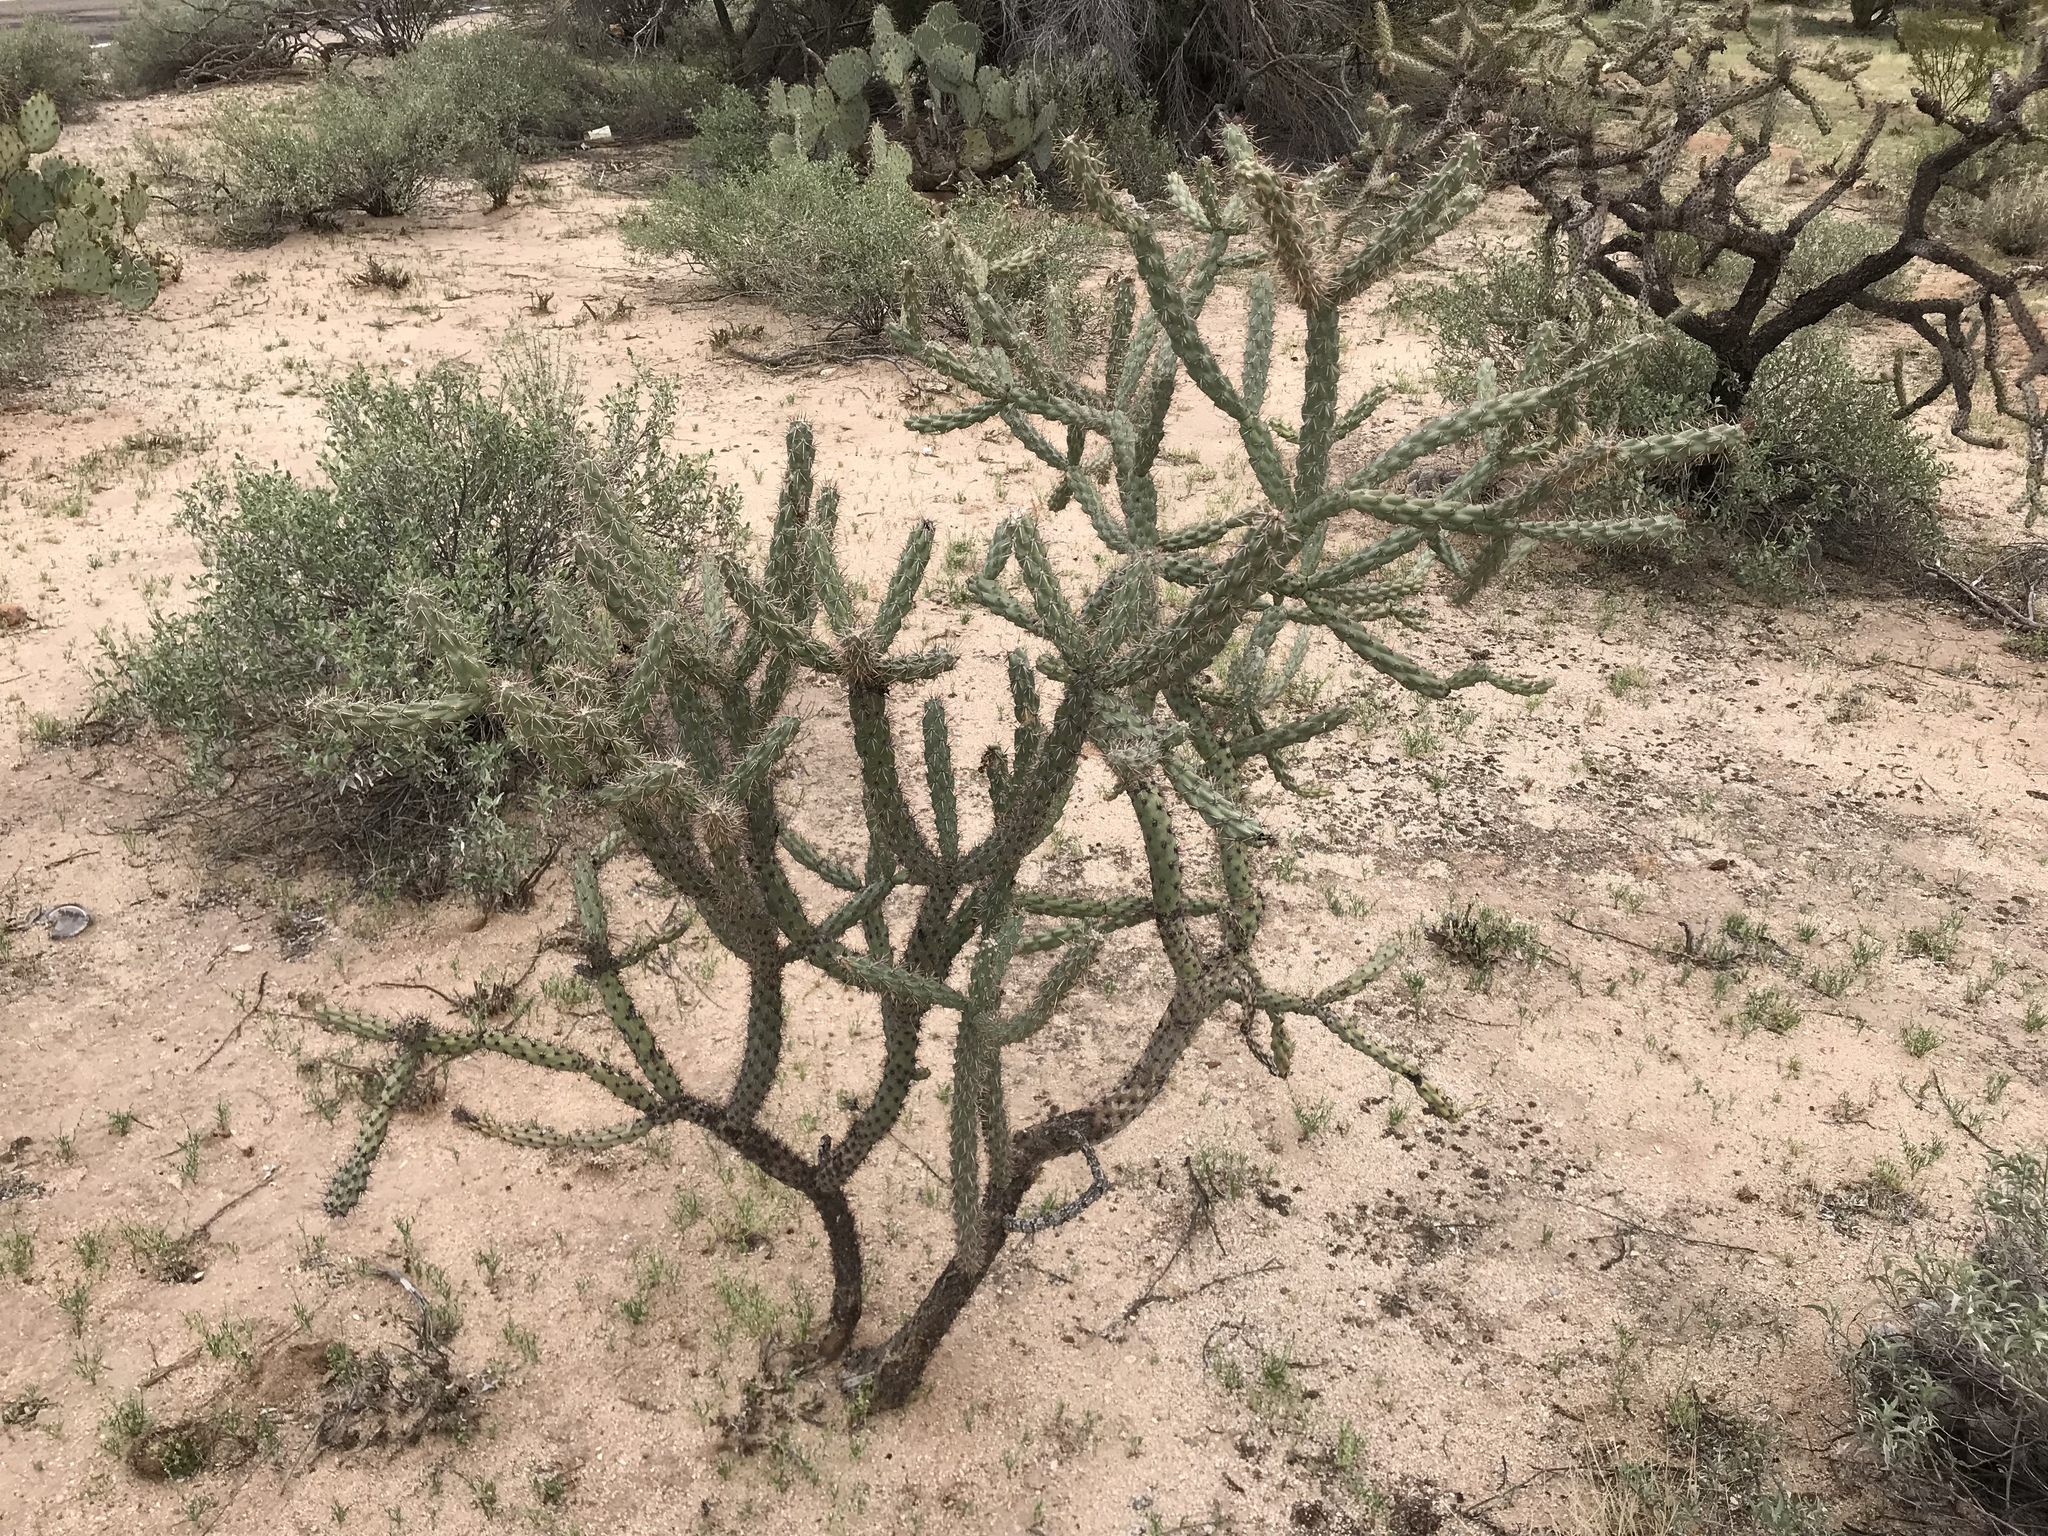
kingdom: Plantae
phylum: Tracheophyta
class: Magnoliopsida
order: Caryophyllales
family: Cactaceae
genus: Cylindropuntia
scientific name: Cylindropuntia acanthocarpa
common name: Buckhorn cholla
